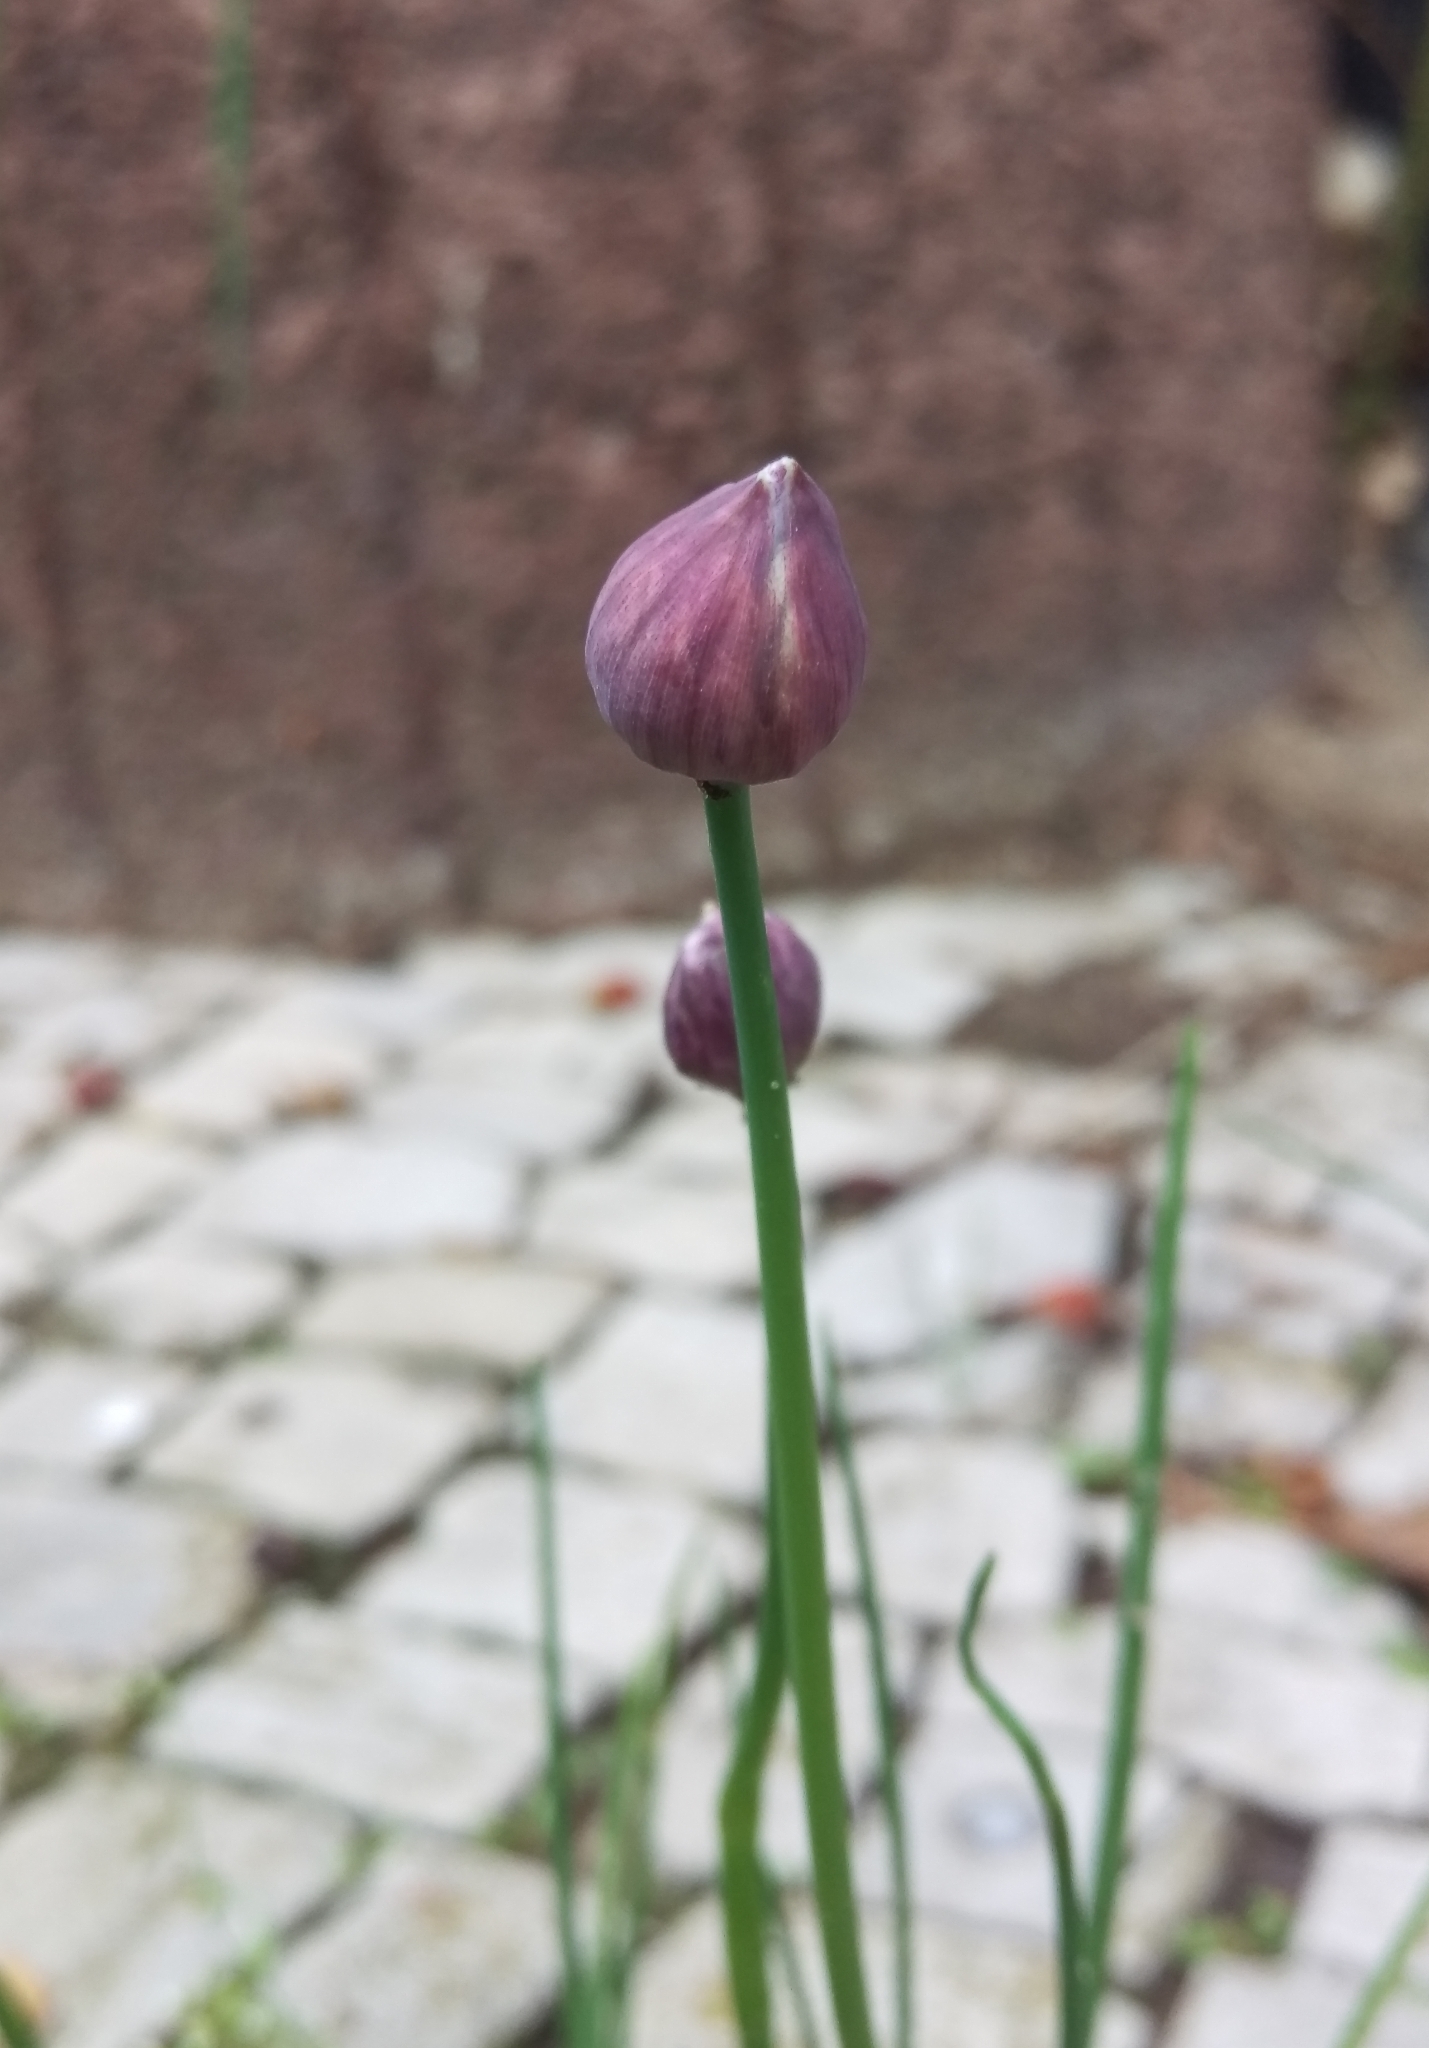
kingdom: Plantae
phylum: Tracheophyta
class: Liliopsida
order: Asparagales
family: Amaryllidaceae
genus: Allium
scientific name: Allium schoenoprasum
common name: Chives
